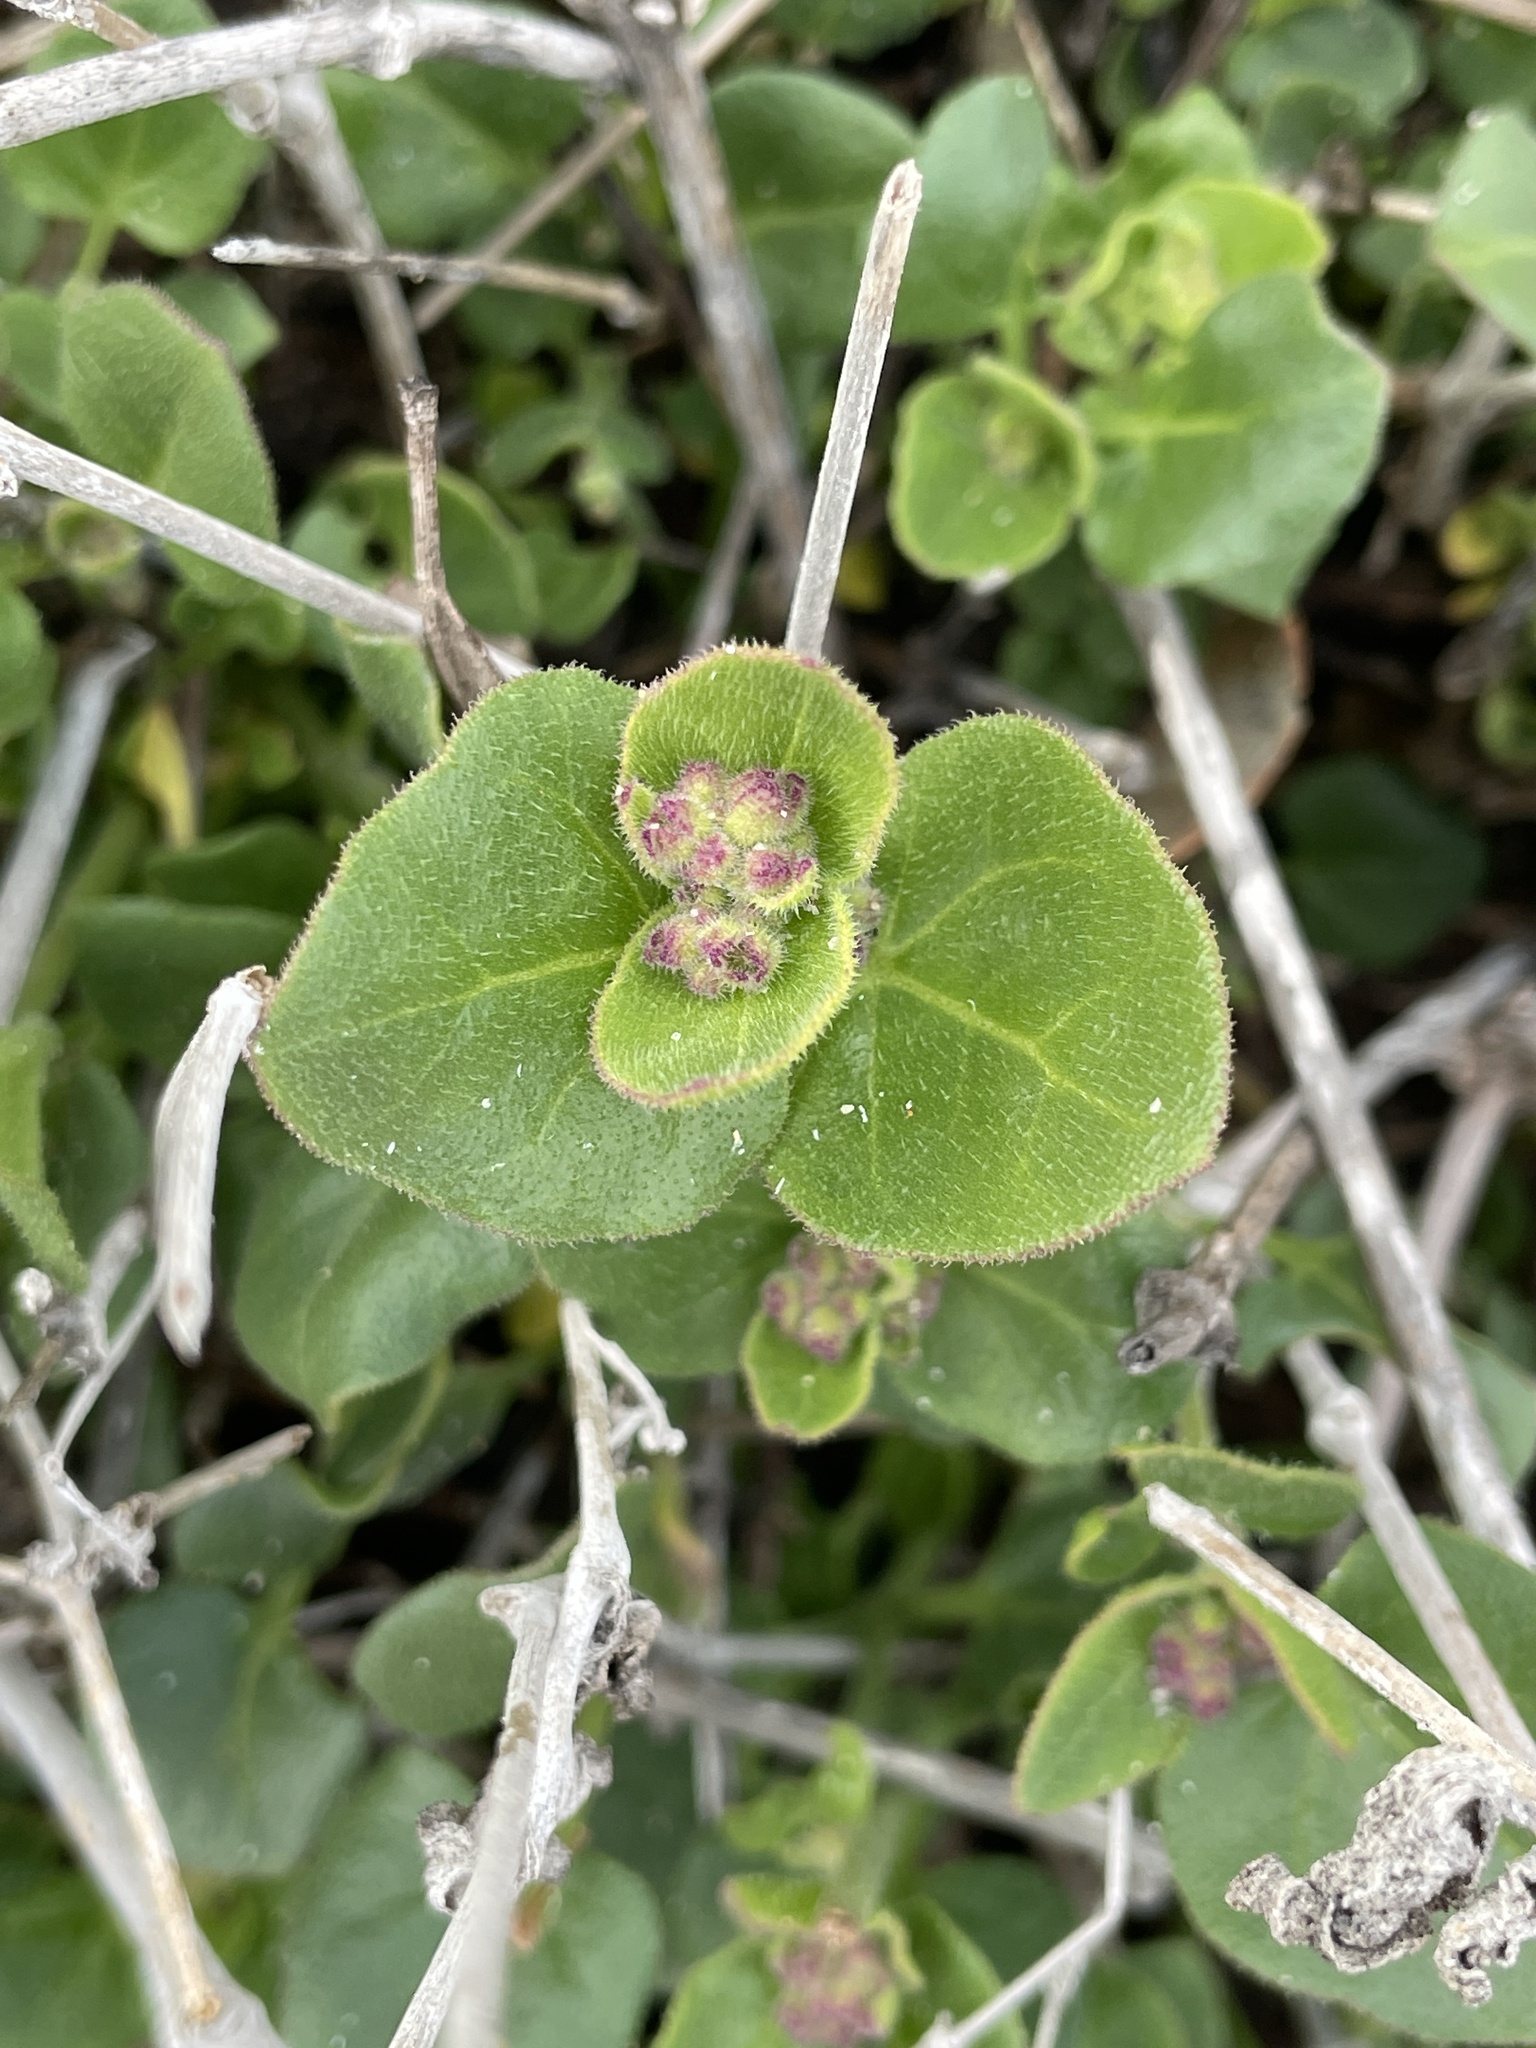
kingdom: Plantae
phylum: Tracheophyta
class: Magnoliopsida
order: Caryophyllales
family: Nyctaginaceae
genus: Mirabilis
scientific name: Mirabilis laevis
